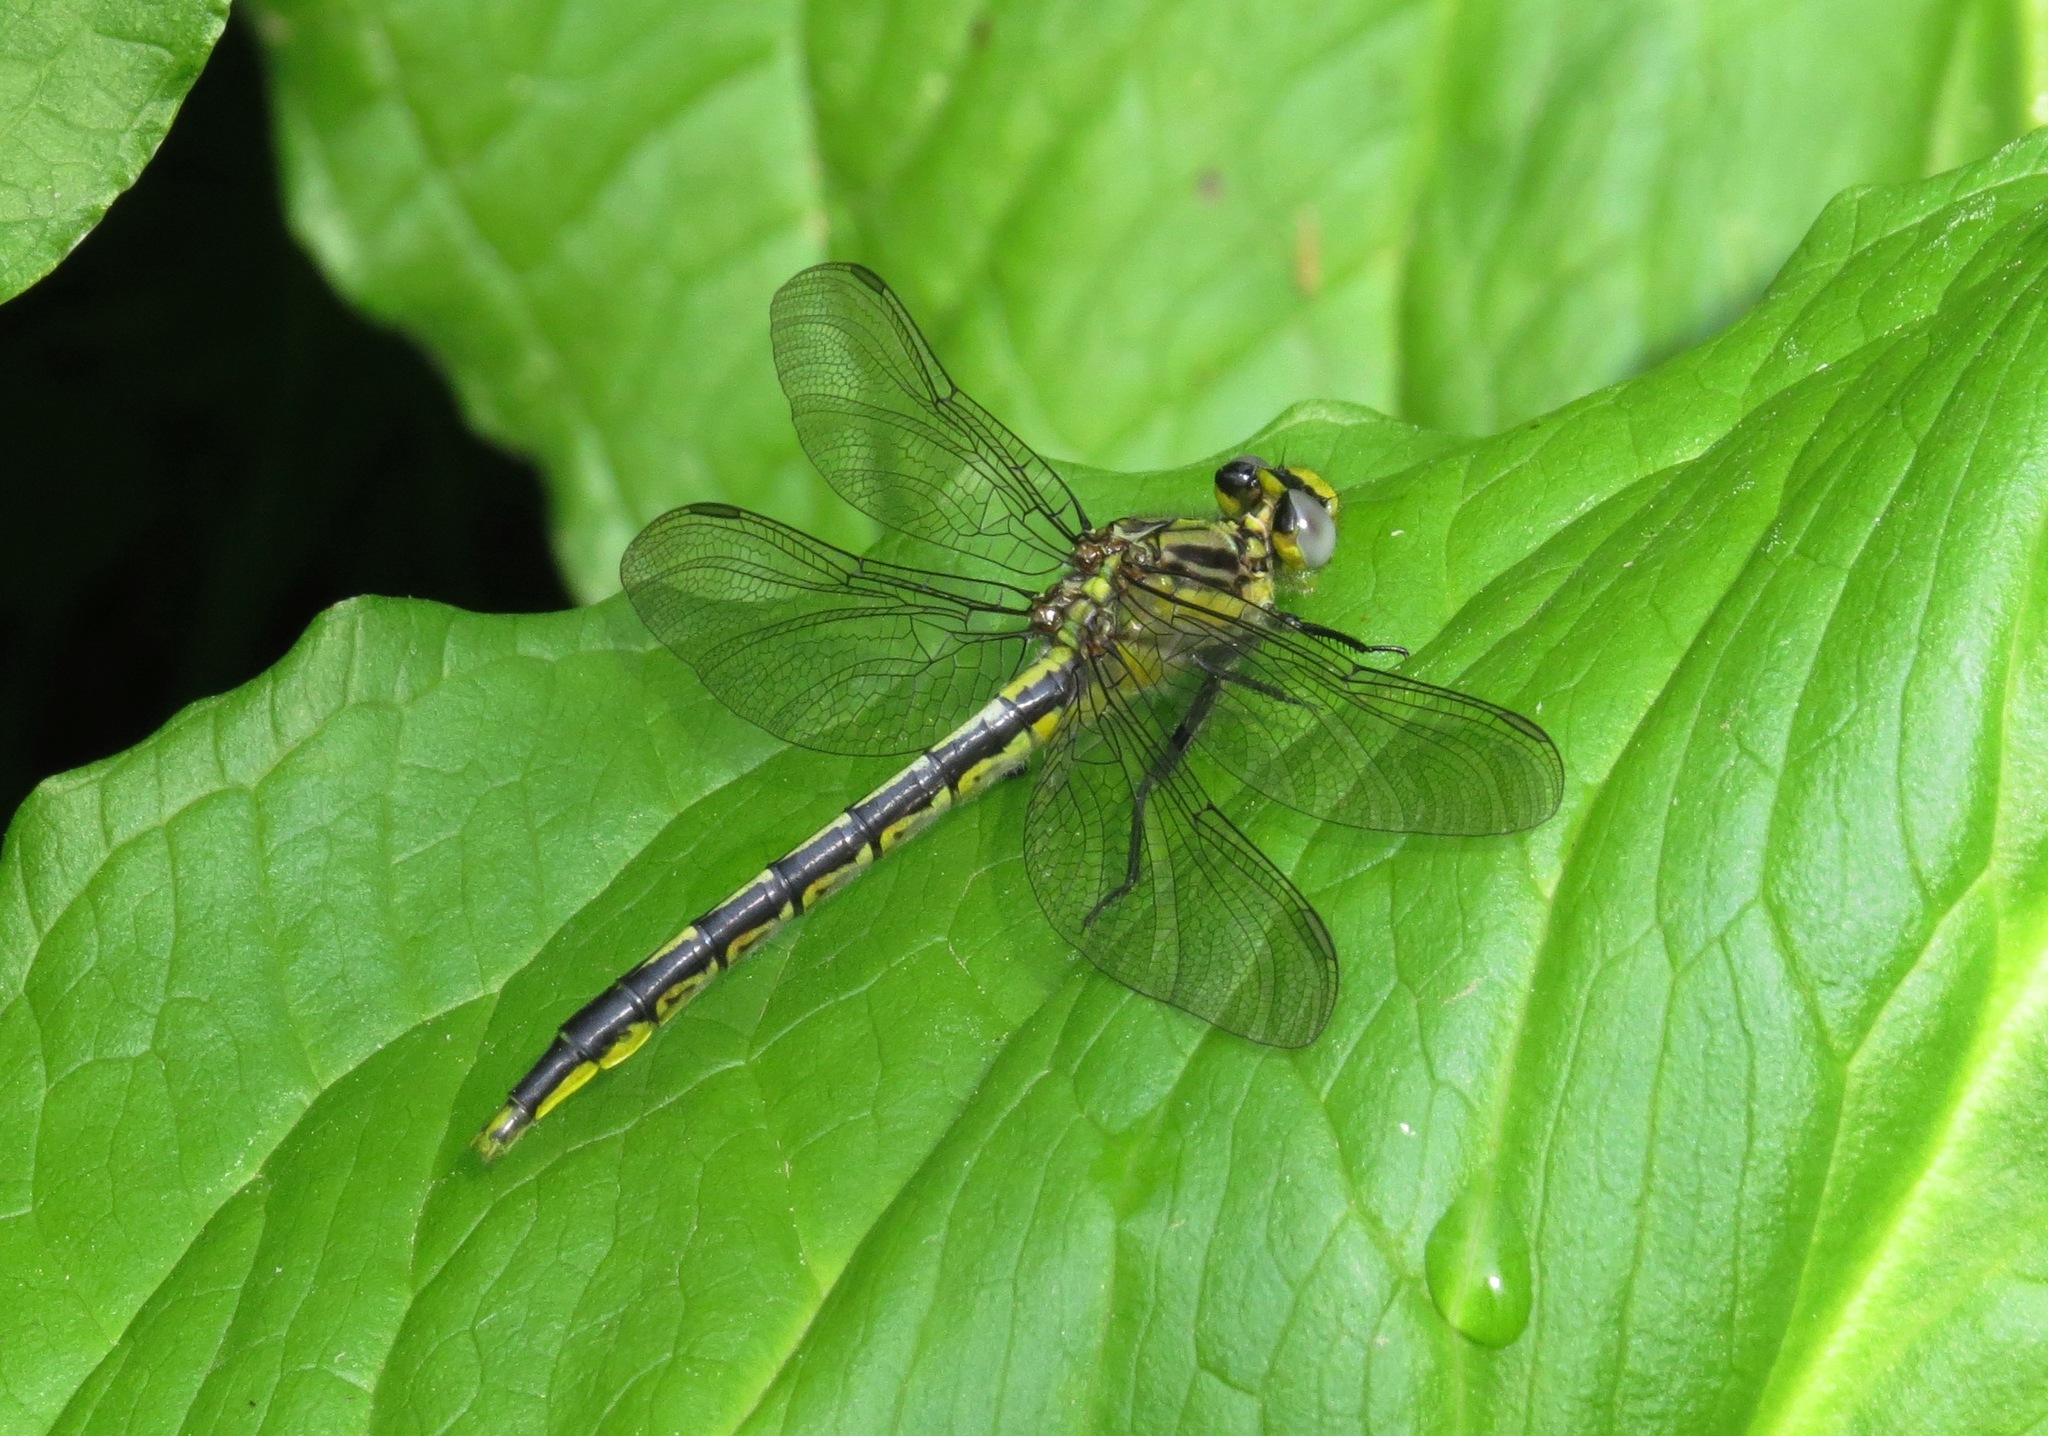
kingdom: Animalia
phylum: Arthropoda
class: Insecta
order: Odonata
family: Gomphidae
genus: Arigomphus
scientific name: Arigomphus furcifer
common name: Lilypad clubtail
